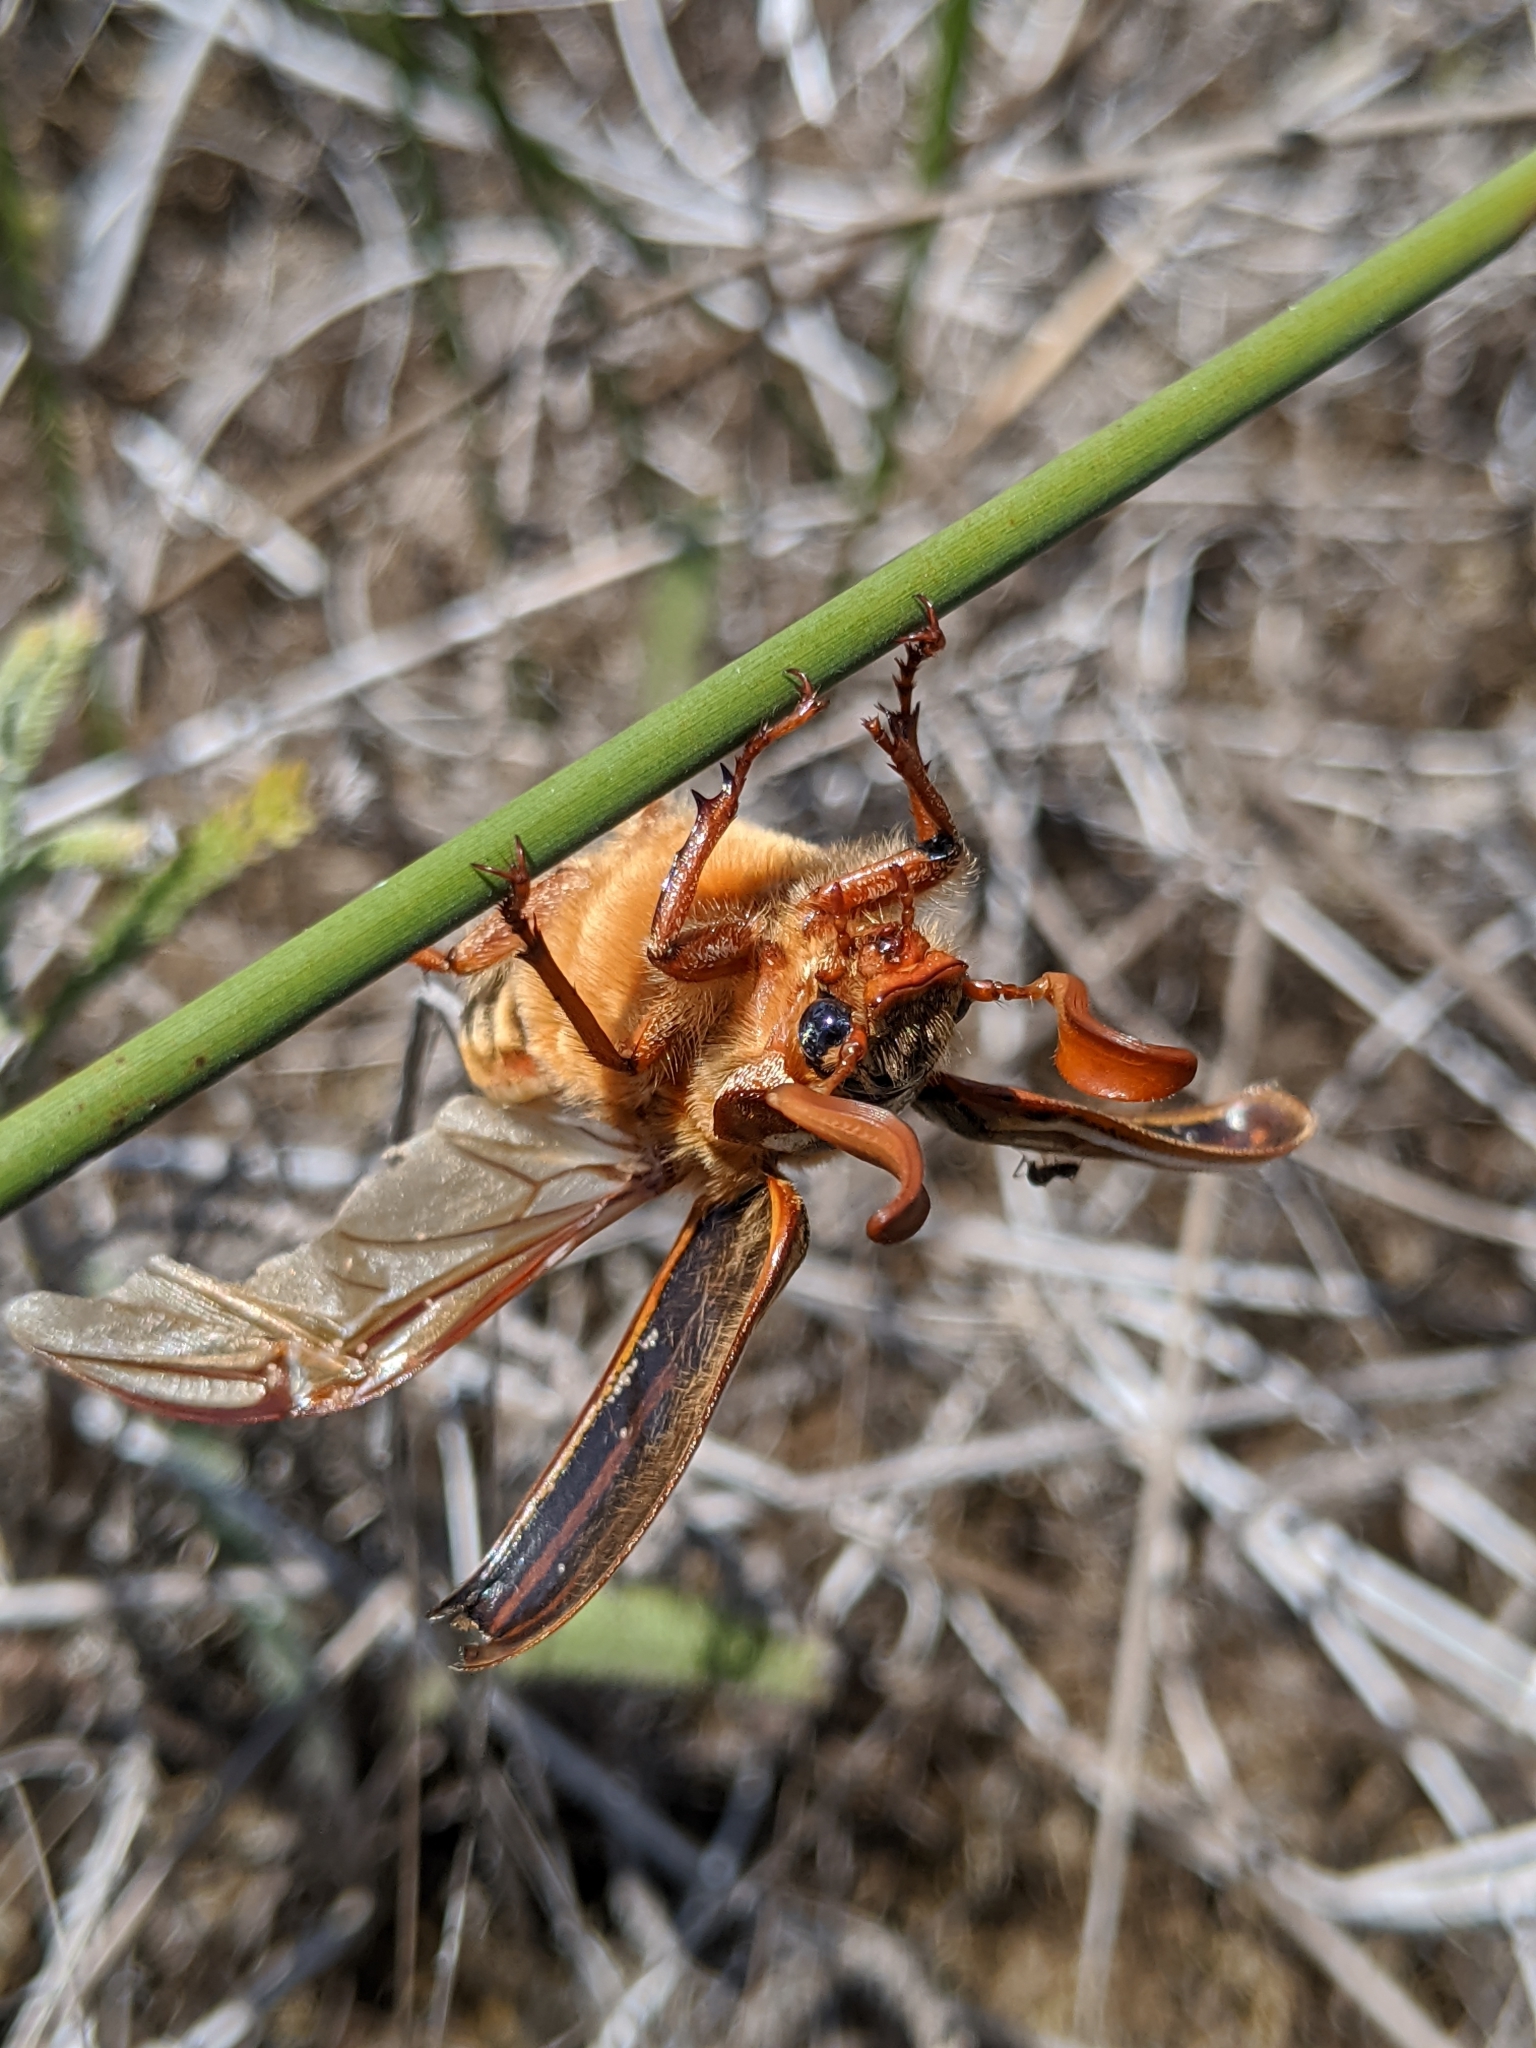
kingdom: Animalia
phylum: Arthropoda
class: Insecta
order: Coleoptera
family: Scarabaeidae
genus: Polyphylla
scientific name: Polyphylla decemlineata
